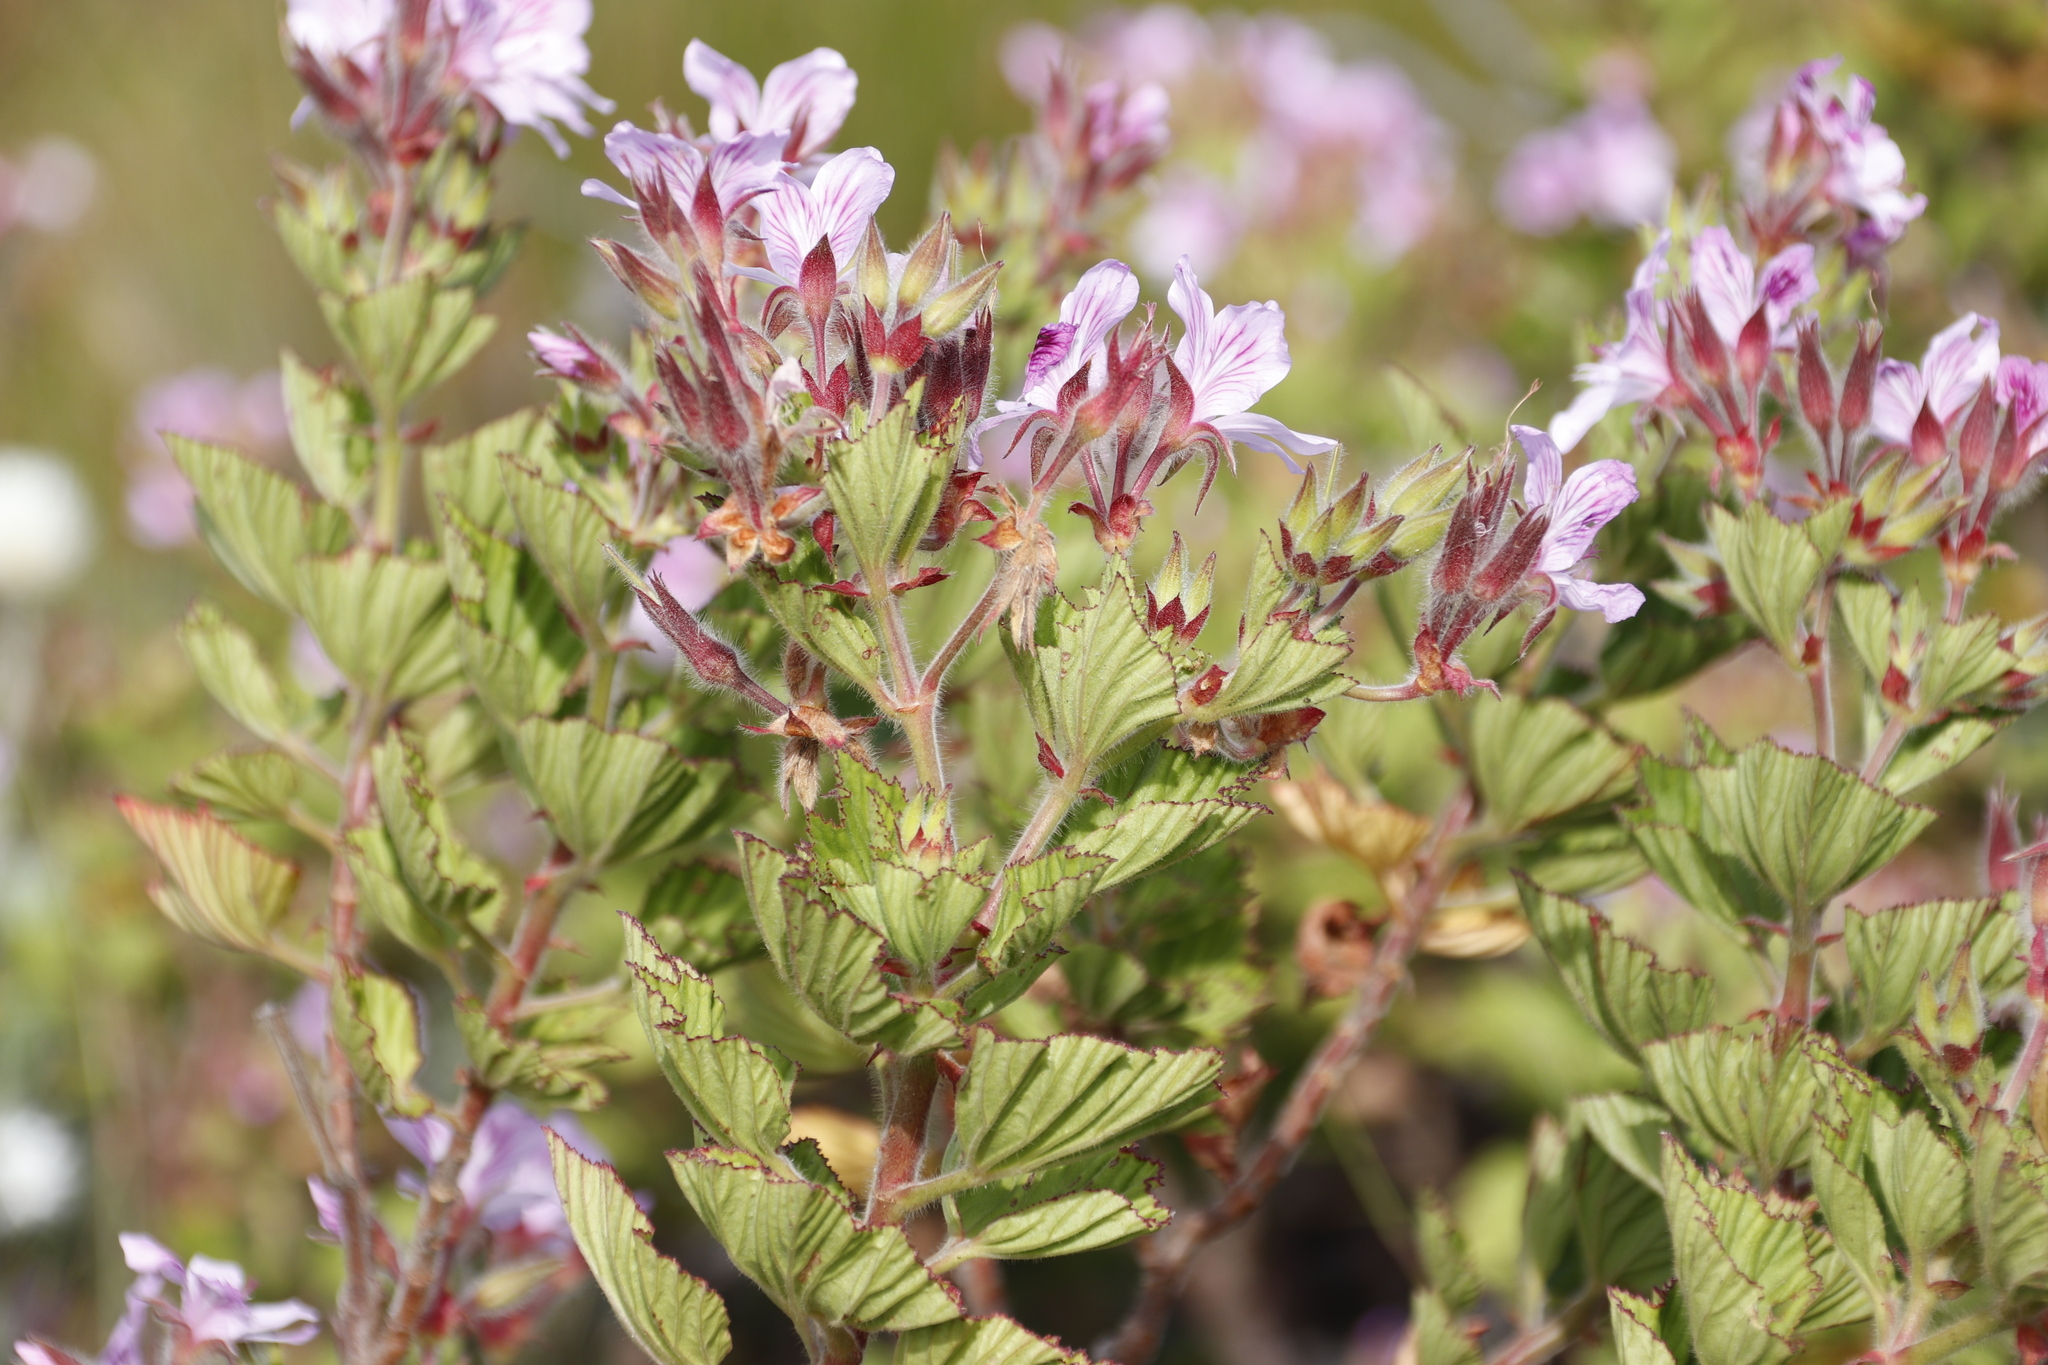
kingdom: Plantae
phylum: Tracheophyta
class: Magnoliopsida
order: Geraniales
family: Geraniaceae
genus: Pelargonium
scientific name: Pelargonium cucullatum
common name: Tree pelargonium
